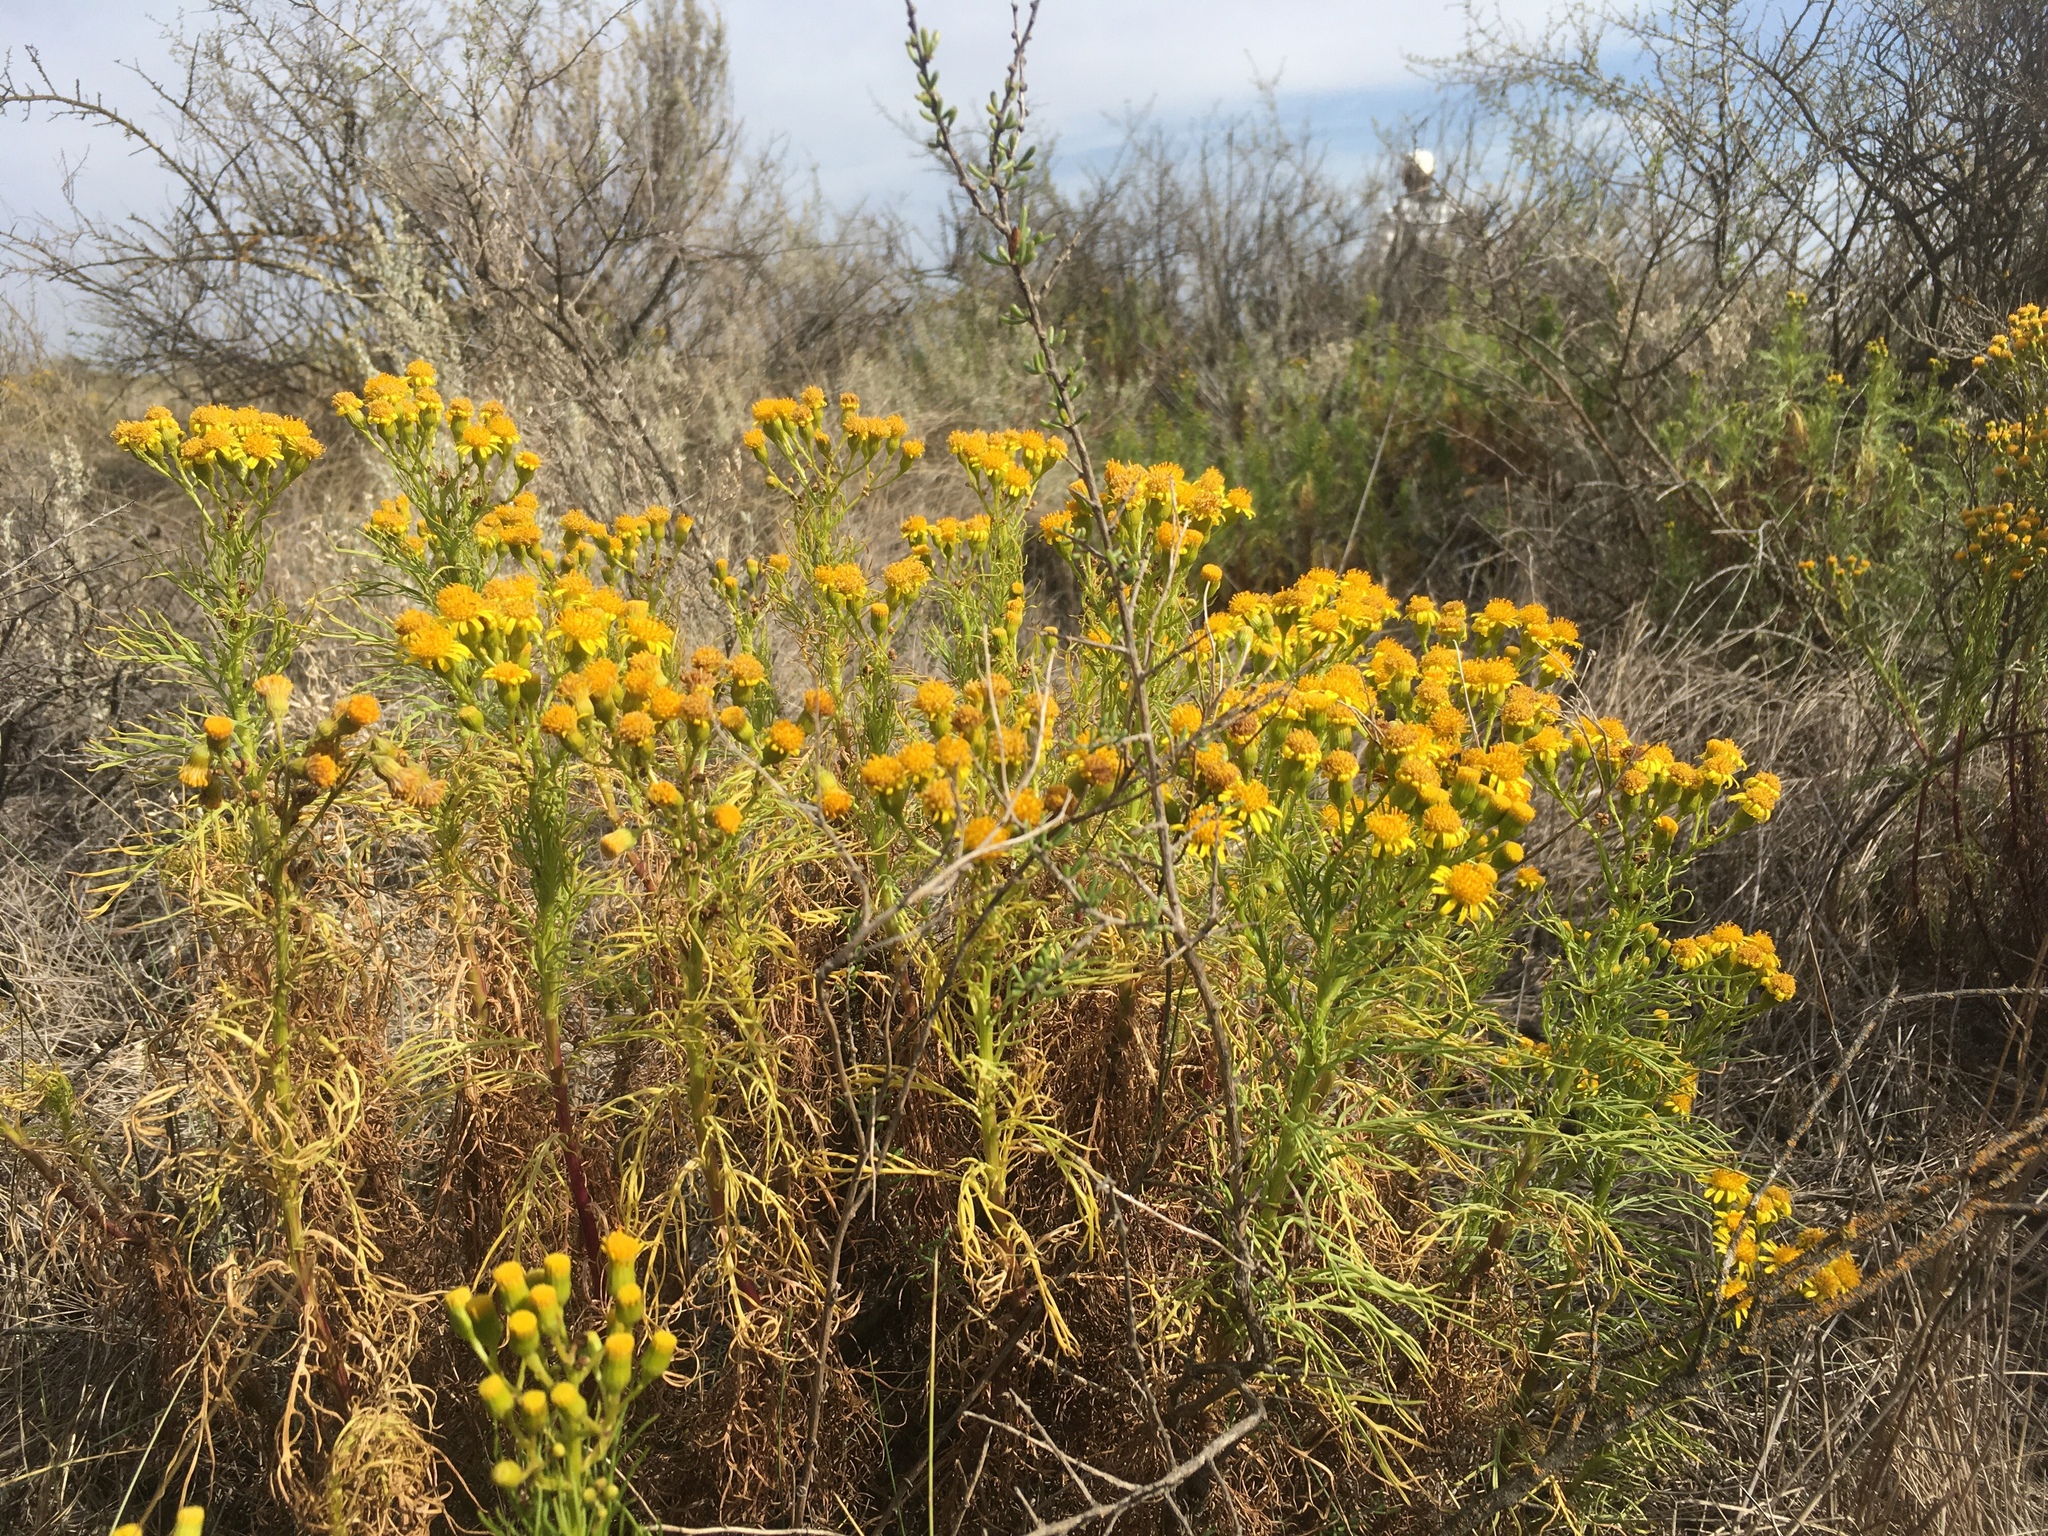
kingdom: Plantae
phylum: Tracheophyta
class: Magnoliopsida
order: Asterales
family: Asteraceae
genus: Senecio
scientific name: Senecio pampeanus
